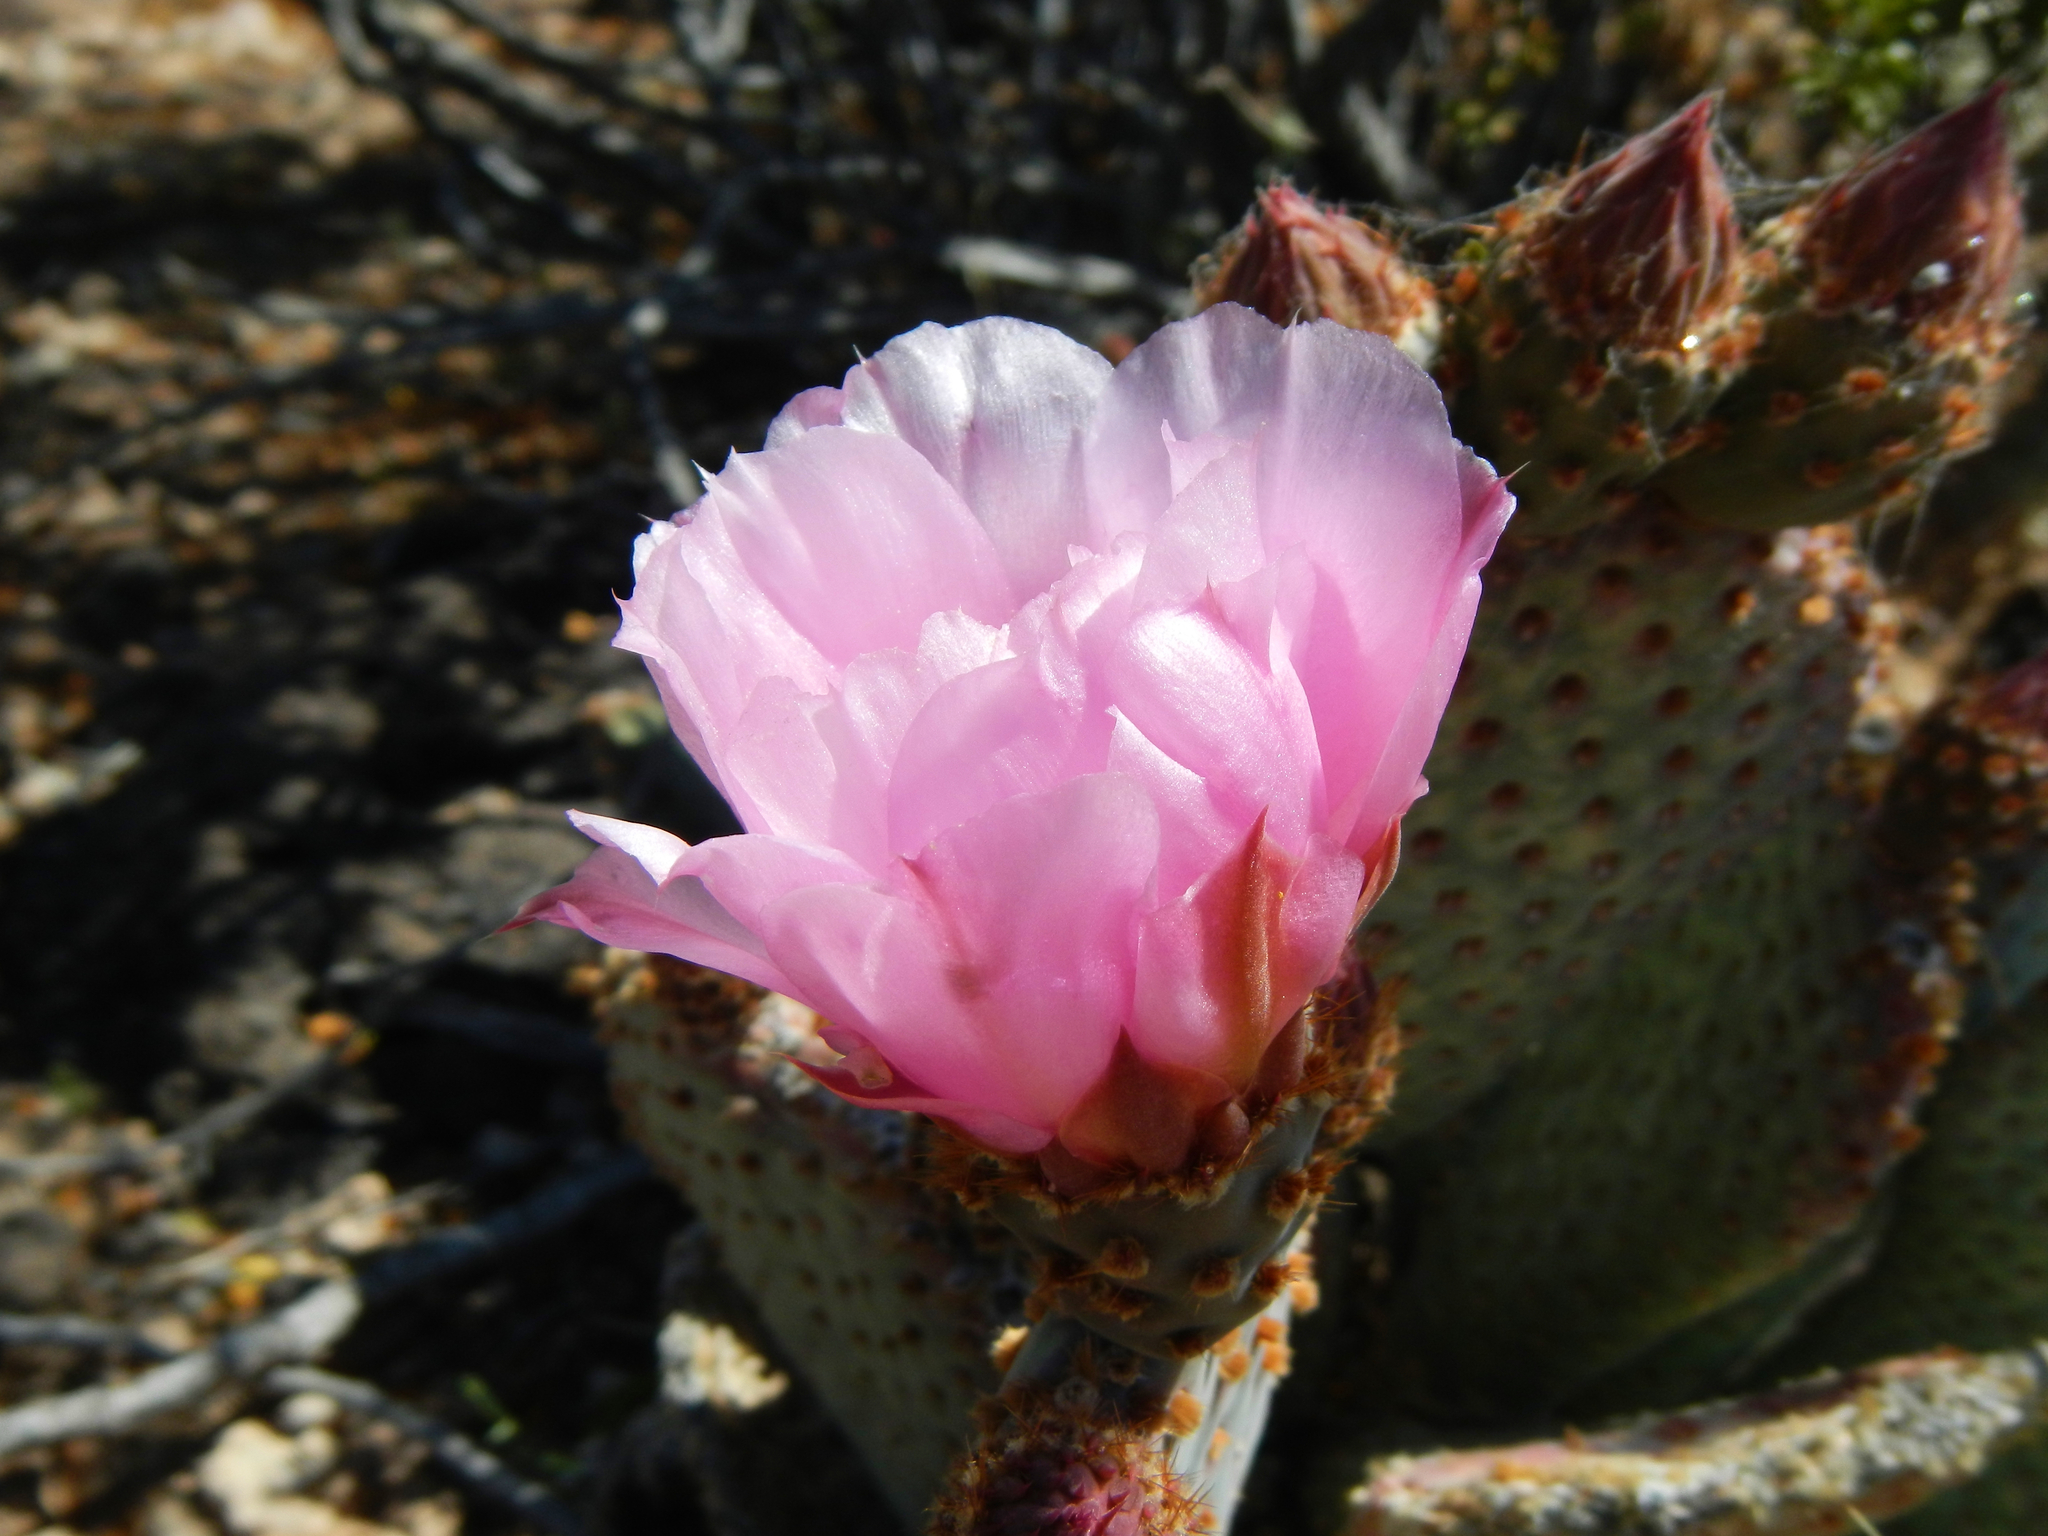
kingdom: Plantae
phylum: Tracheophyta
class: Magnoliopsida
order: Caryophyllales
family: Cactaceae
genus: Opuntia
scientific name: Opuntia basilaris
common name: Beavertail prickly-pear
